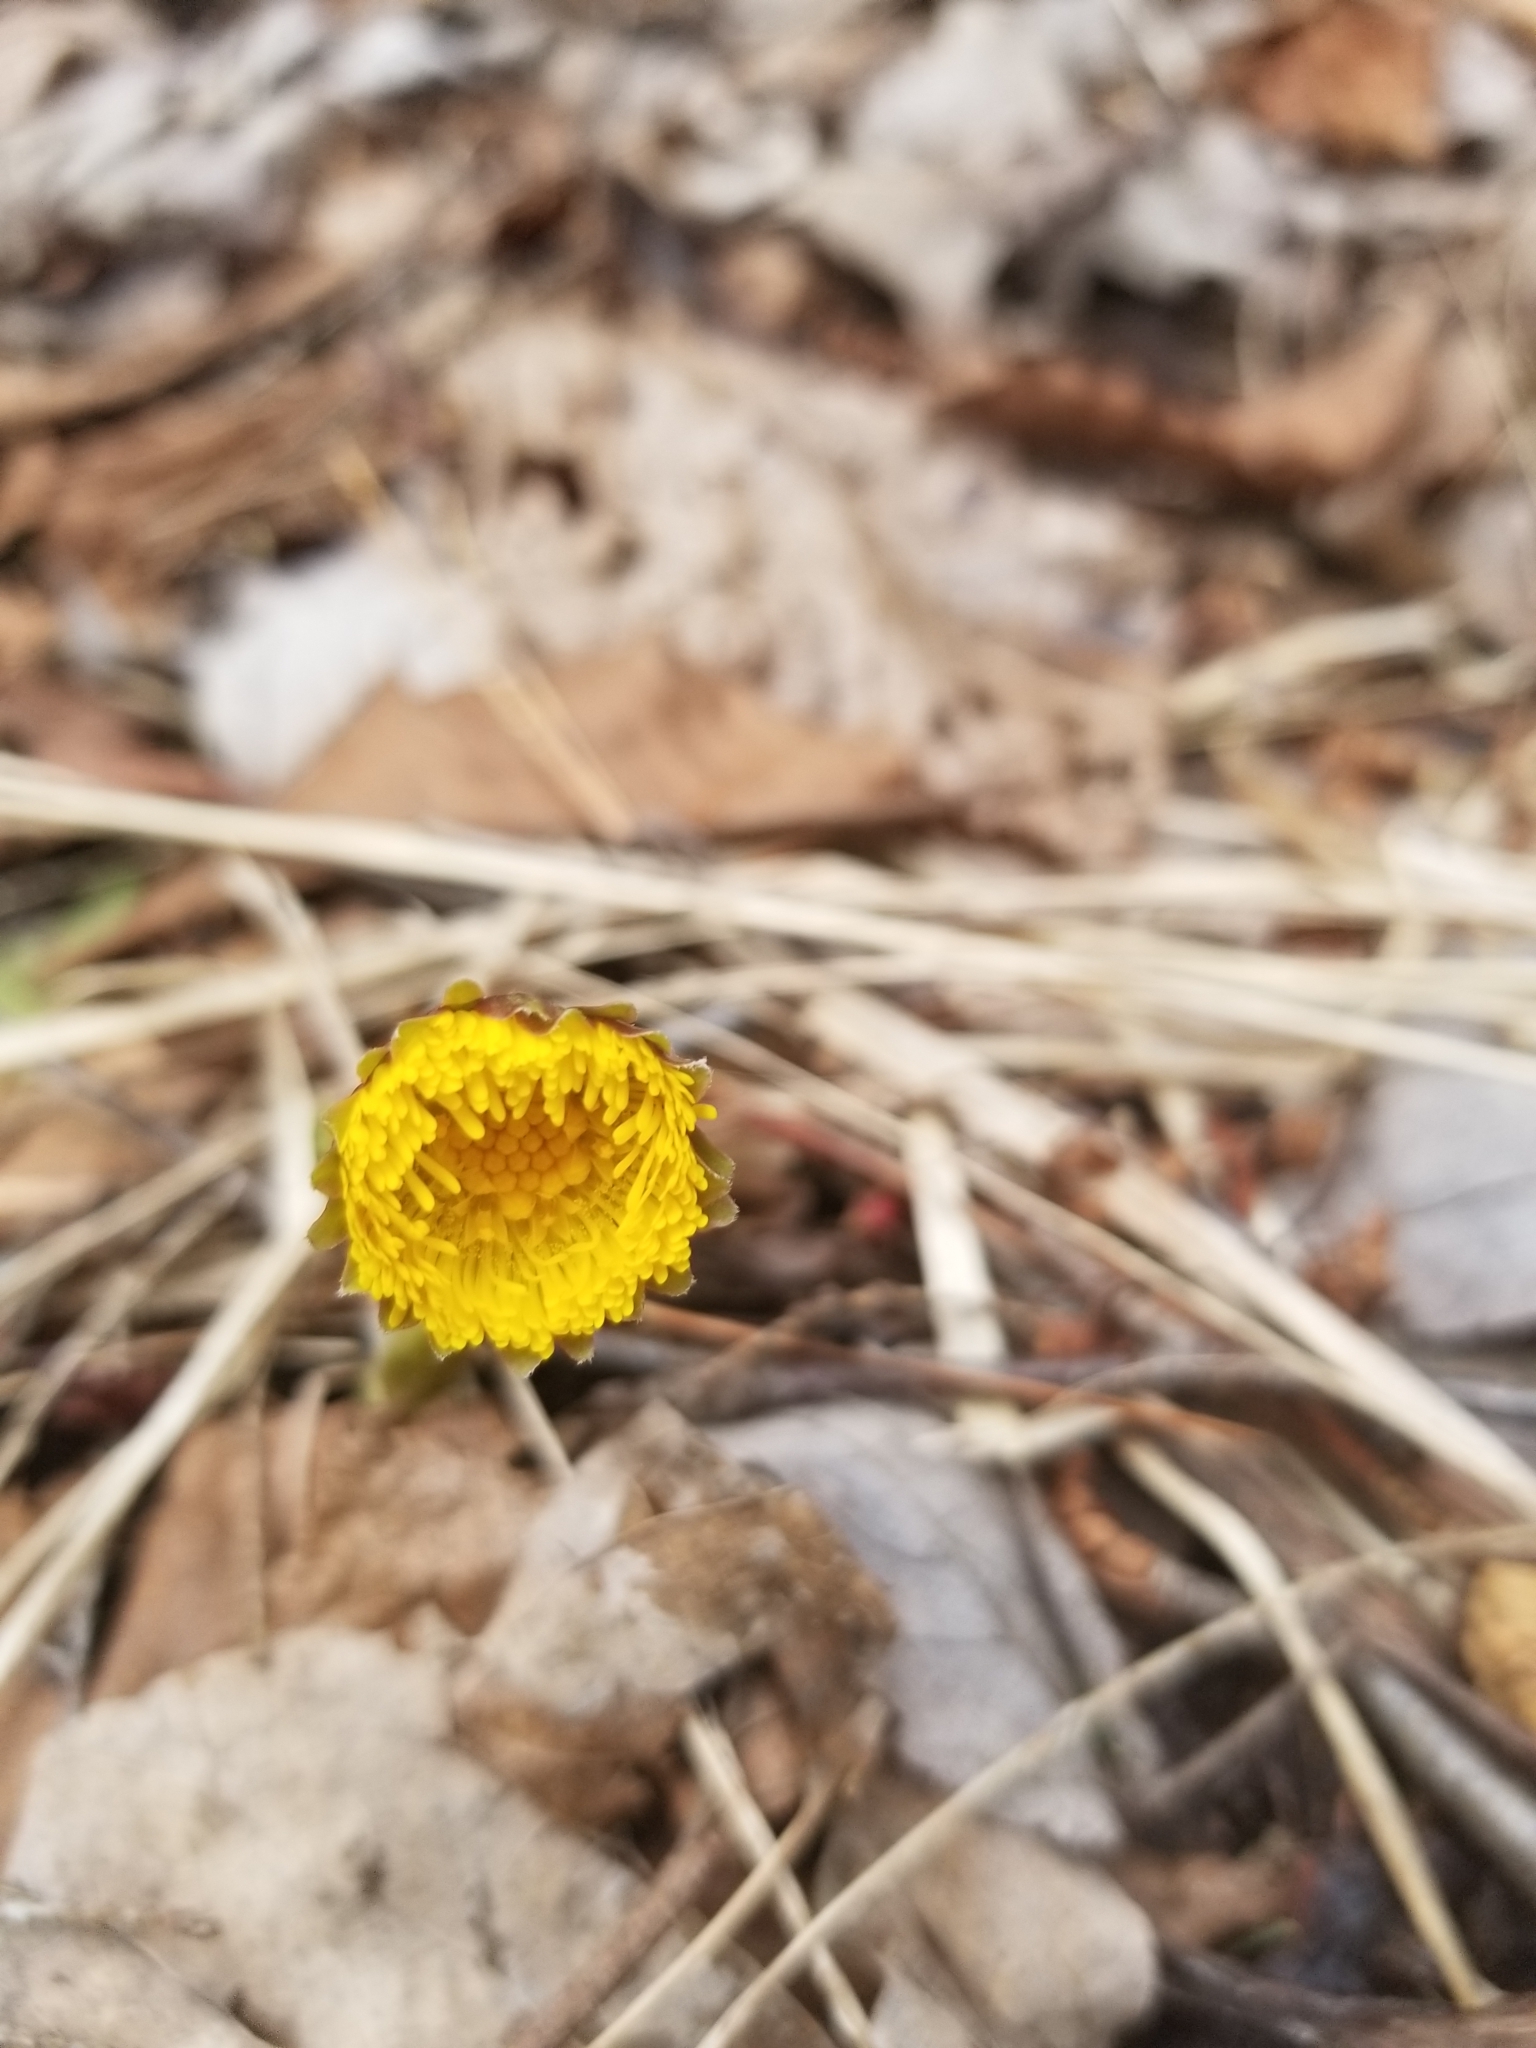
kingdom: Plantae
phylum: Tracheophyta
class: Magnoliopsida
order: Asterales
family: Asteraceae
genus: Tussilago
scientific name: Tussilago farfara
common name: Coltsfoot
